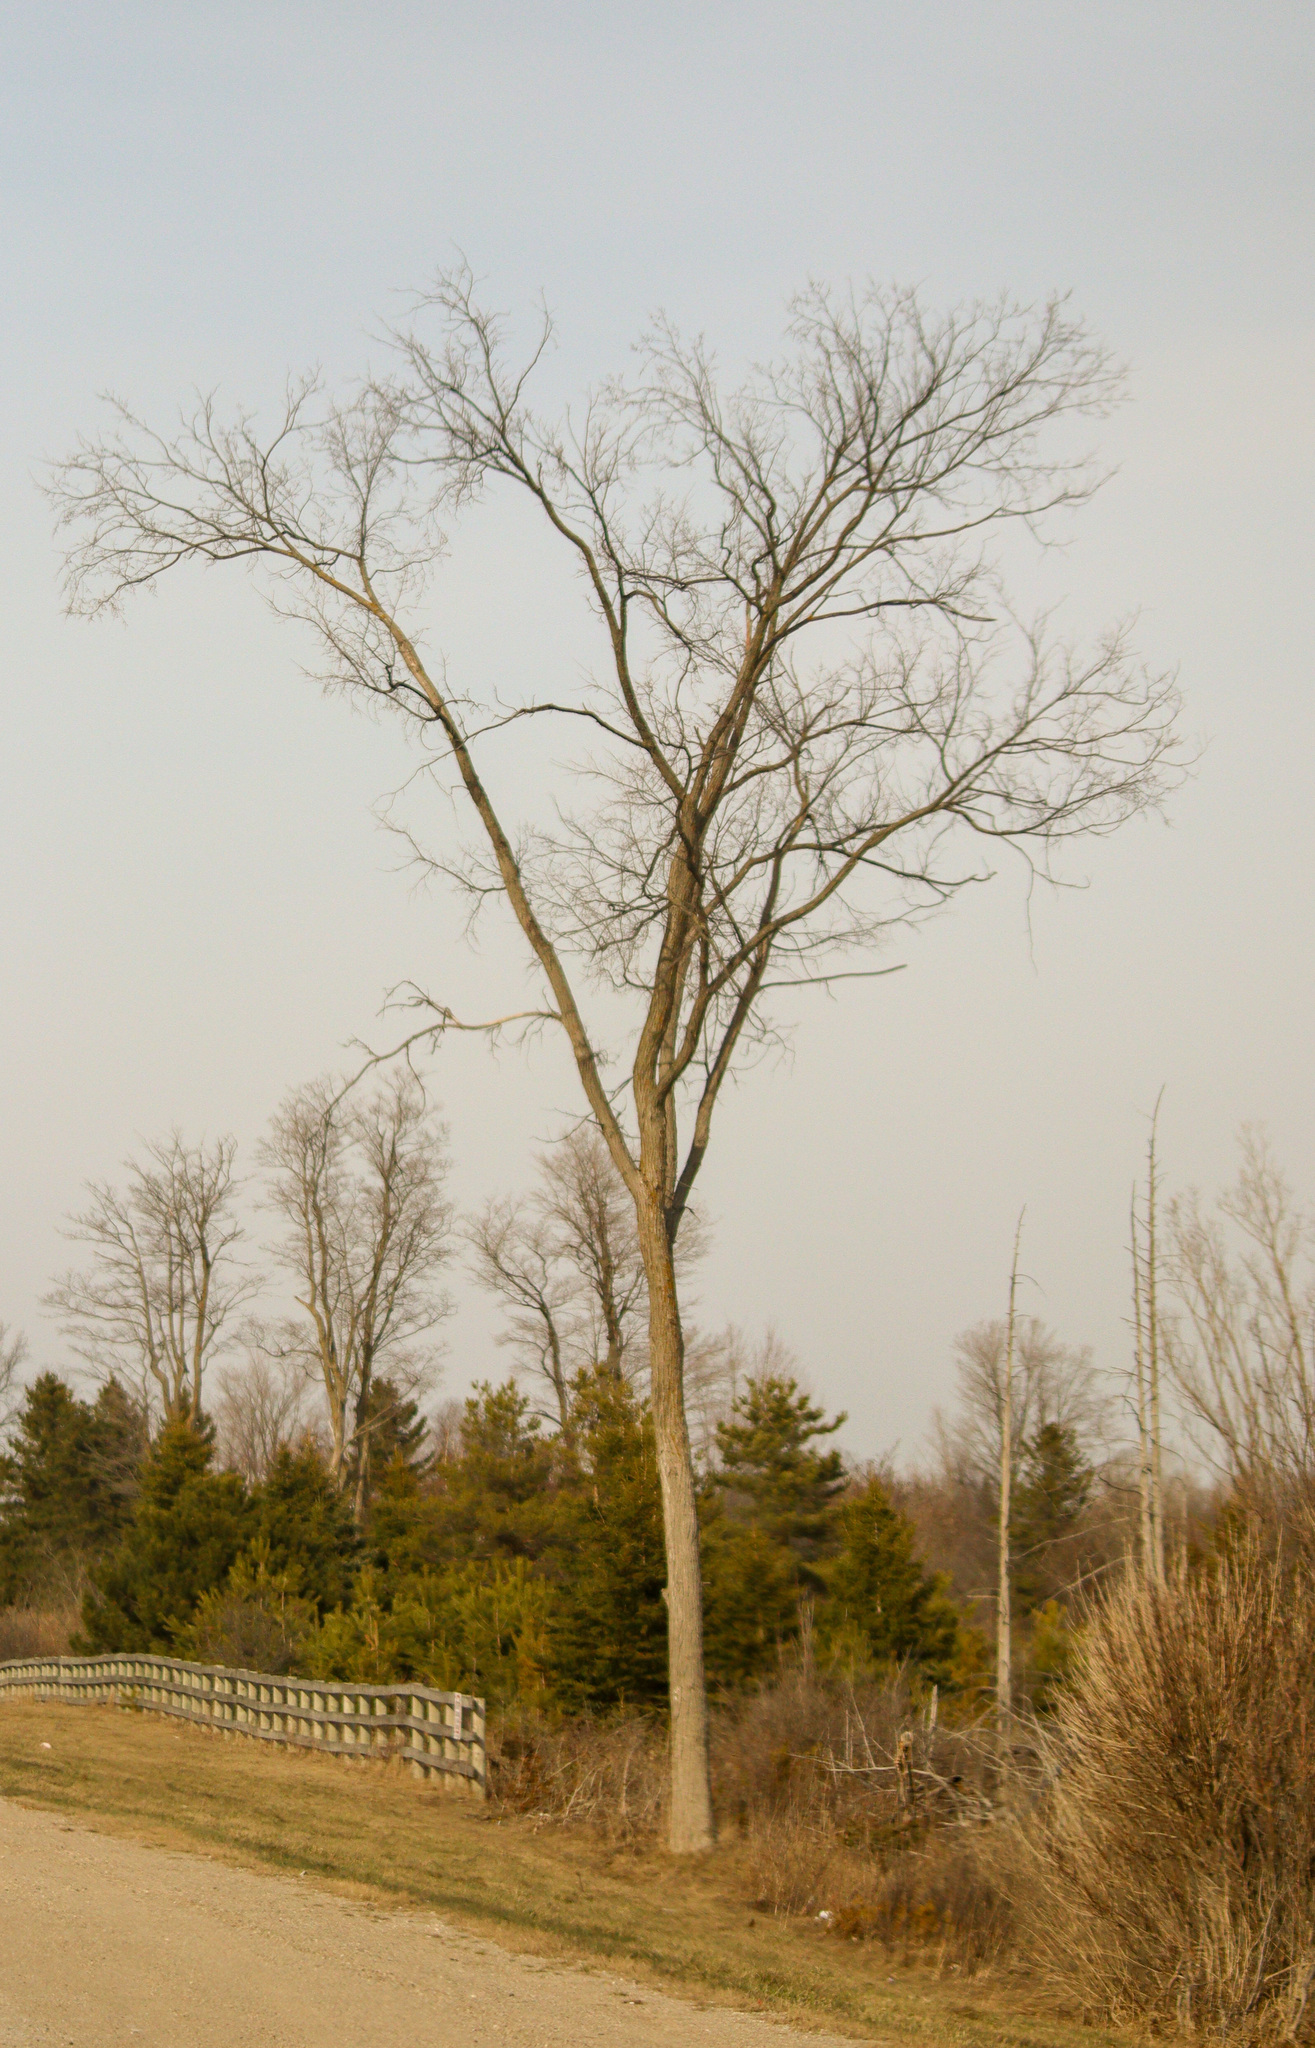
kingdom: Plantae
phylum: Tracheophyta
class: Magnoliopsida
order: Rosales
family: Ulmaceae
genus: Ulmus
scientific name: Ulmus americana
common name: American elm
